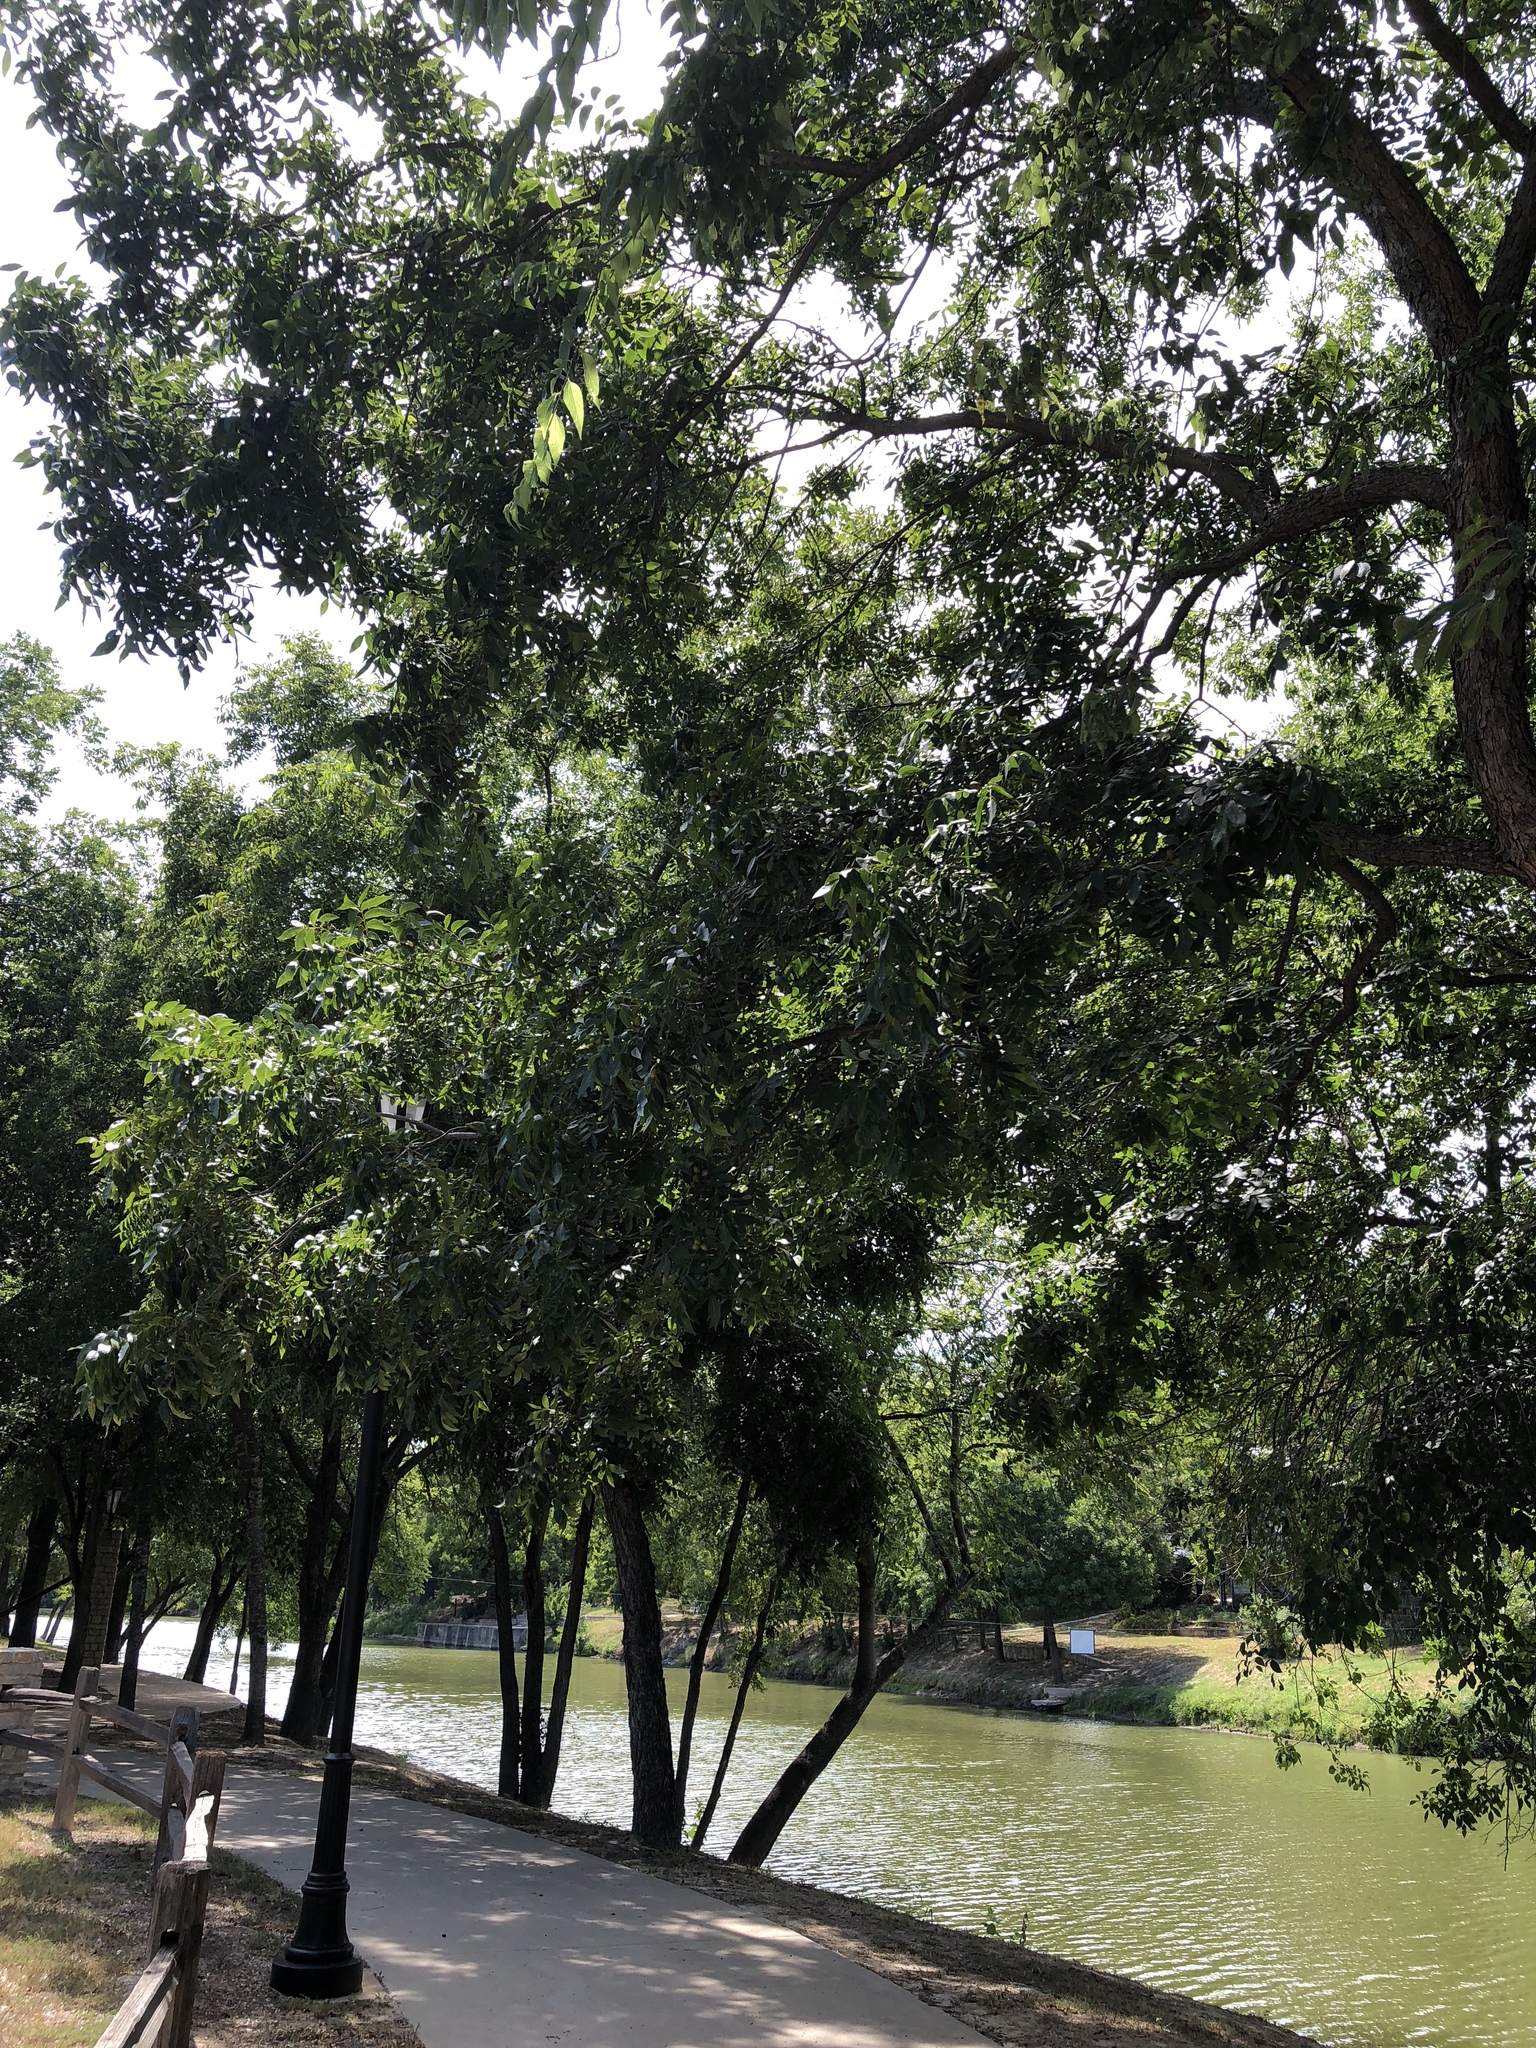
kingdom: Plantae
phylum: Tracheophyta
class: Magnoliopsida
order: Fagales
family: Juglandaceae
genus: Carya
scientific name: Carya illinoinensis
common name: Pecan
